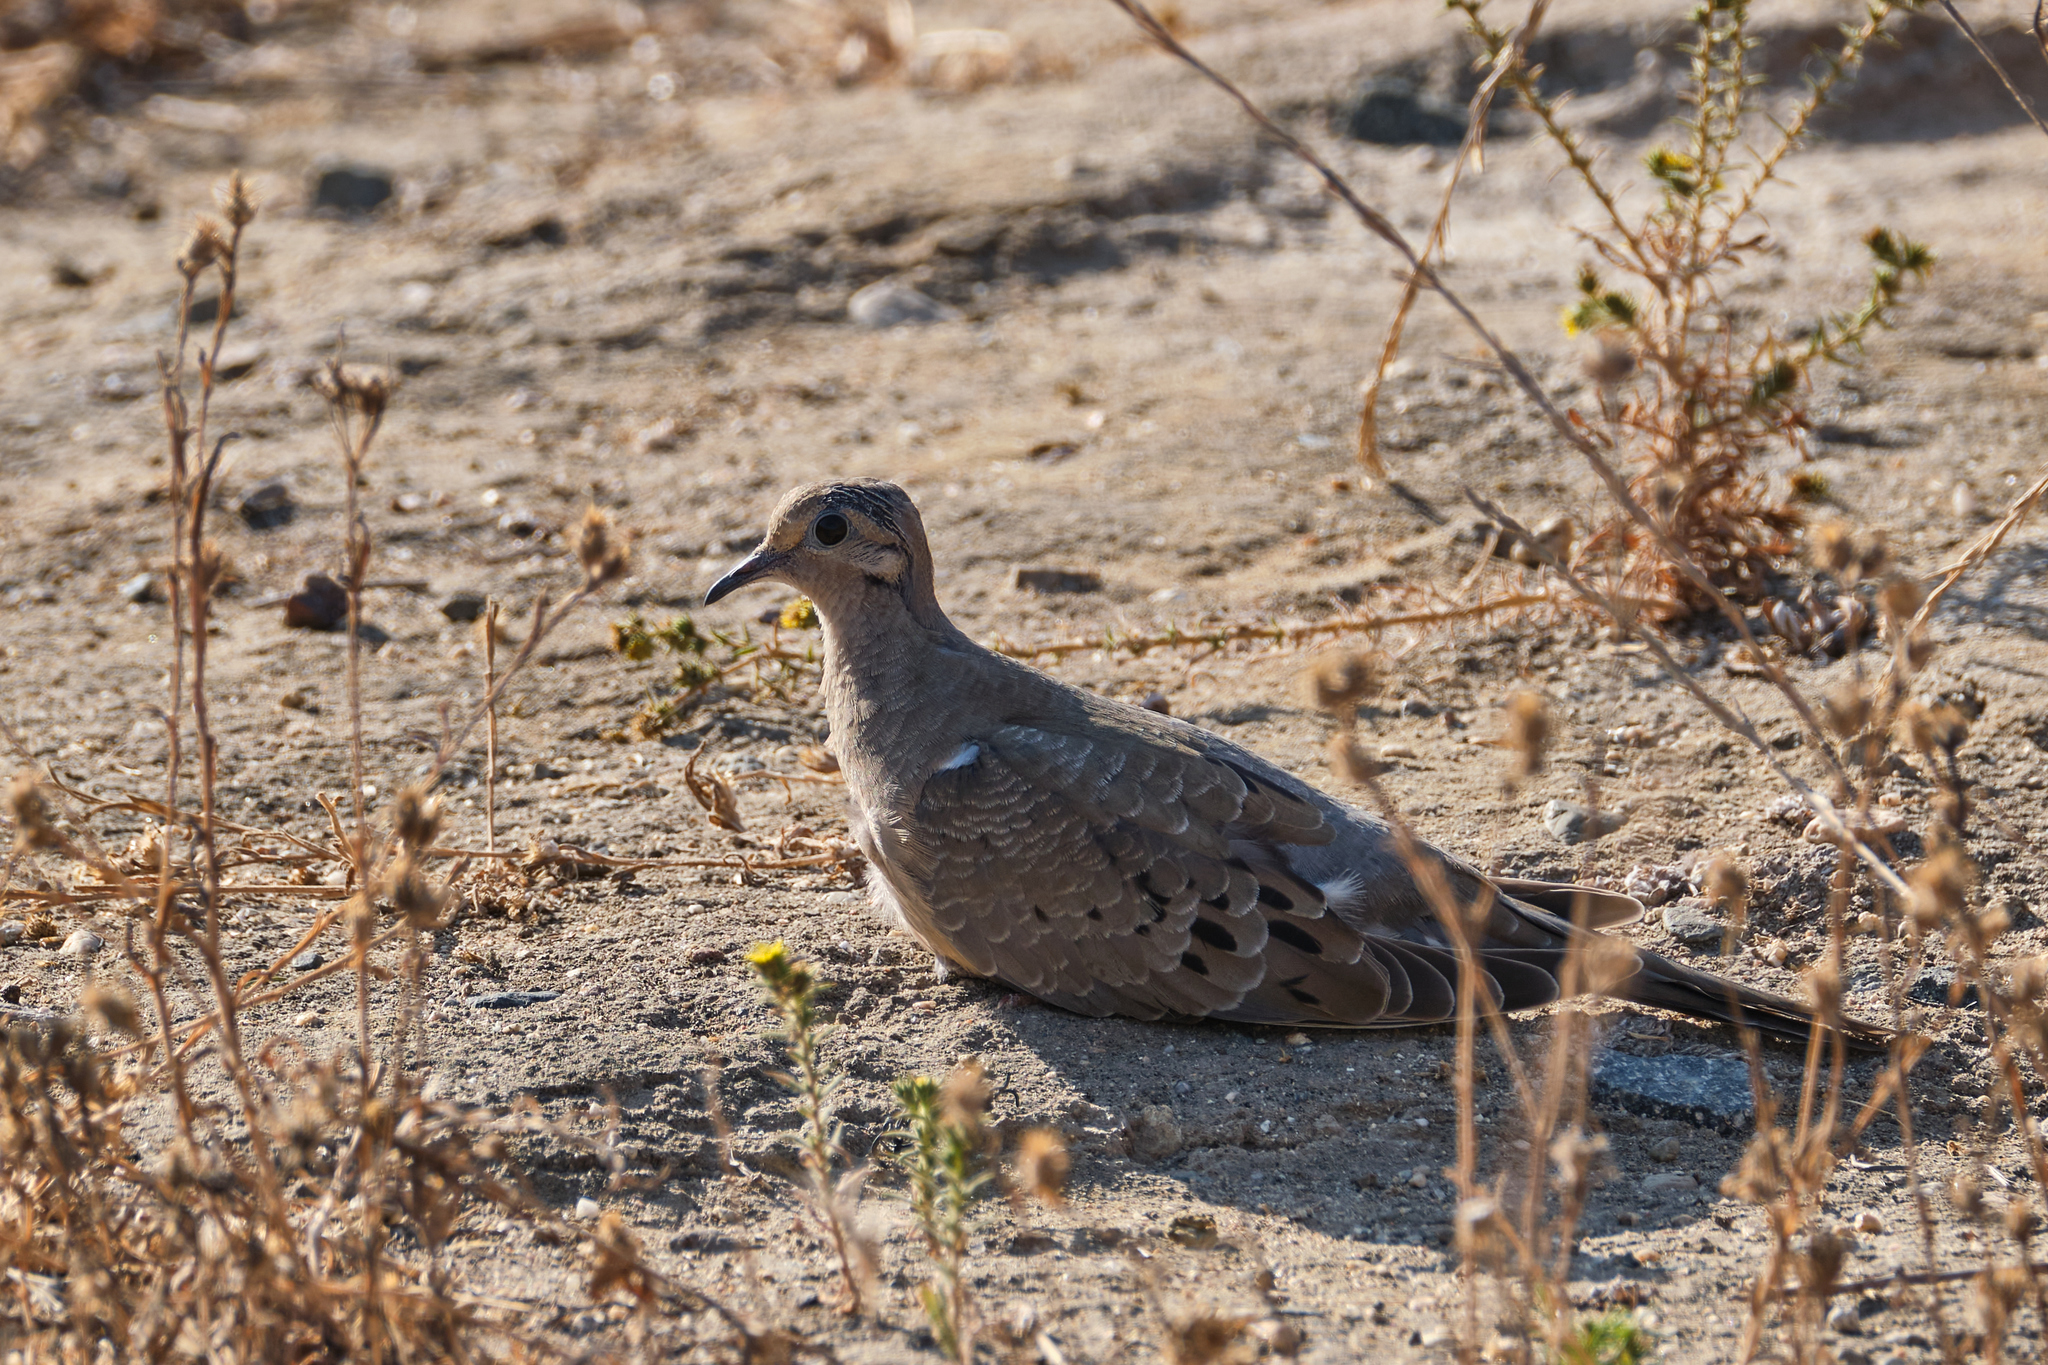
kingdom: Animalia
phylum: Chordata
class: Aves
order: Columbiformes
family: Columbidae
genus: Zenaida
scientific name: Zenaida macroura
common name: Mourning dove
